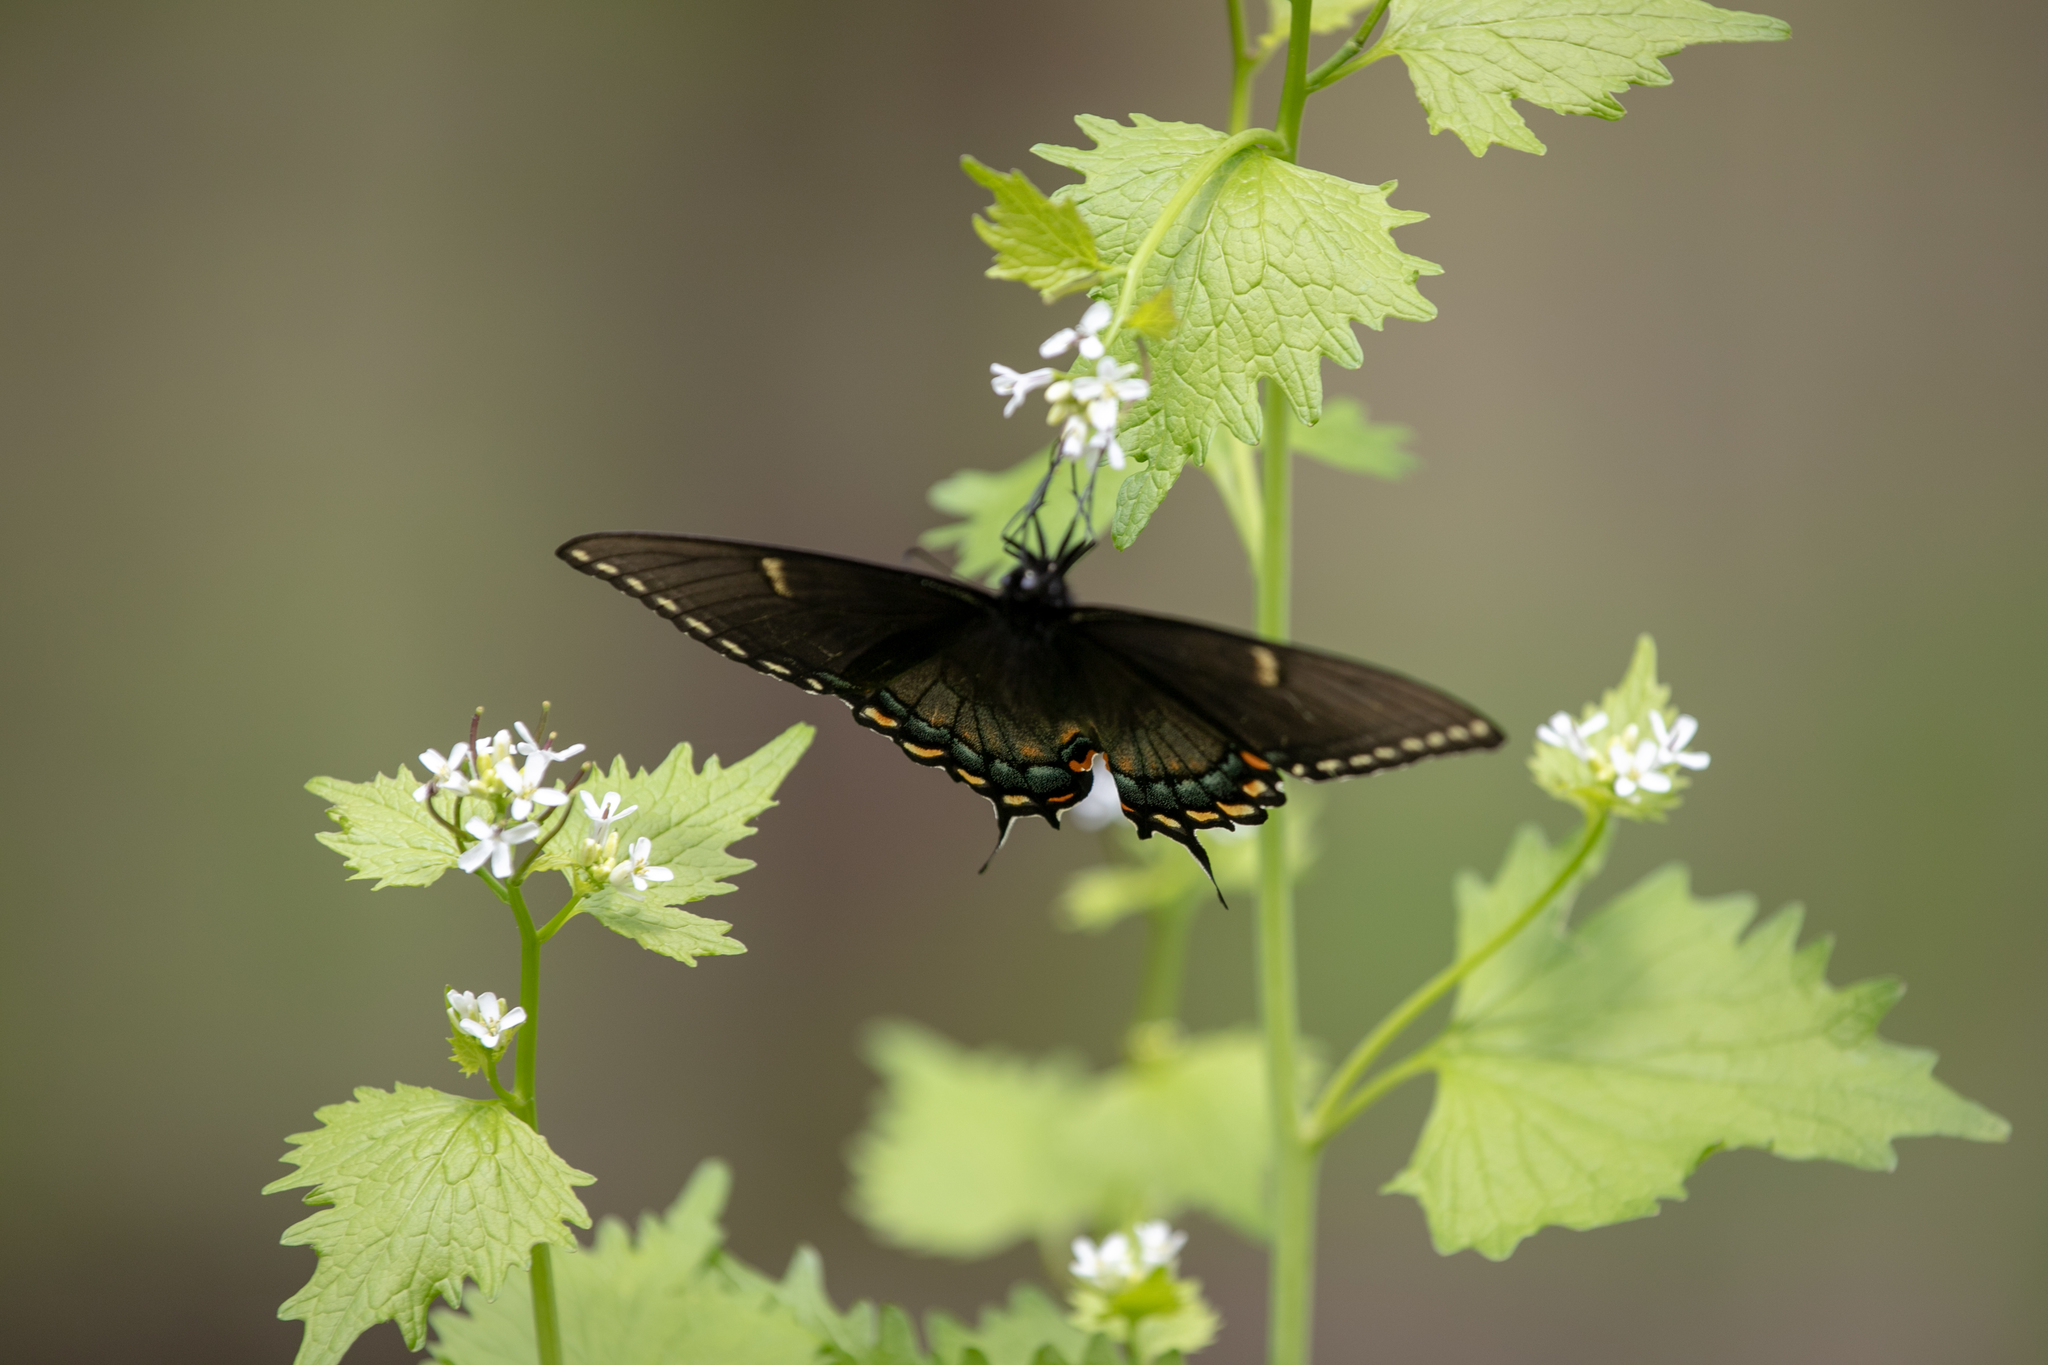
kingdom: Animalia
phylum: Arthropoda
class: Insecta
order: Lepidoptera
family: Papilionidae
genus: Papilio
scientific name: Papilio glaucus
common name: Tiger swallowtail
